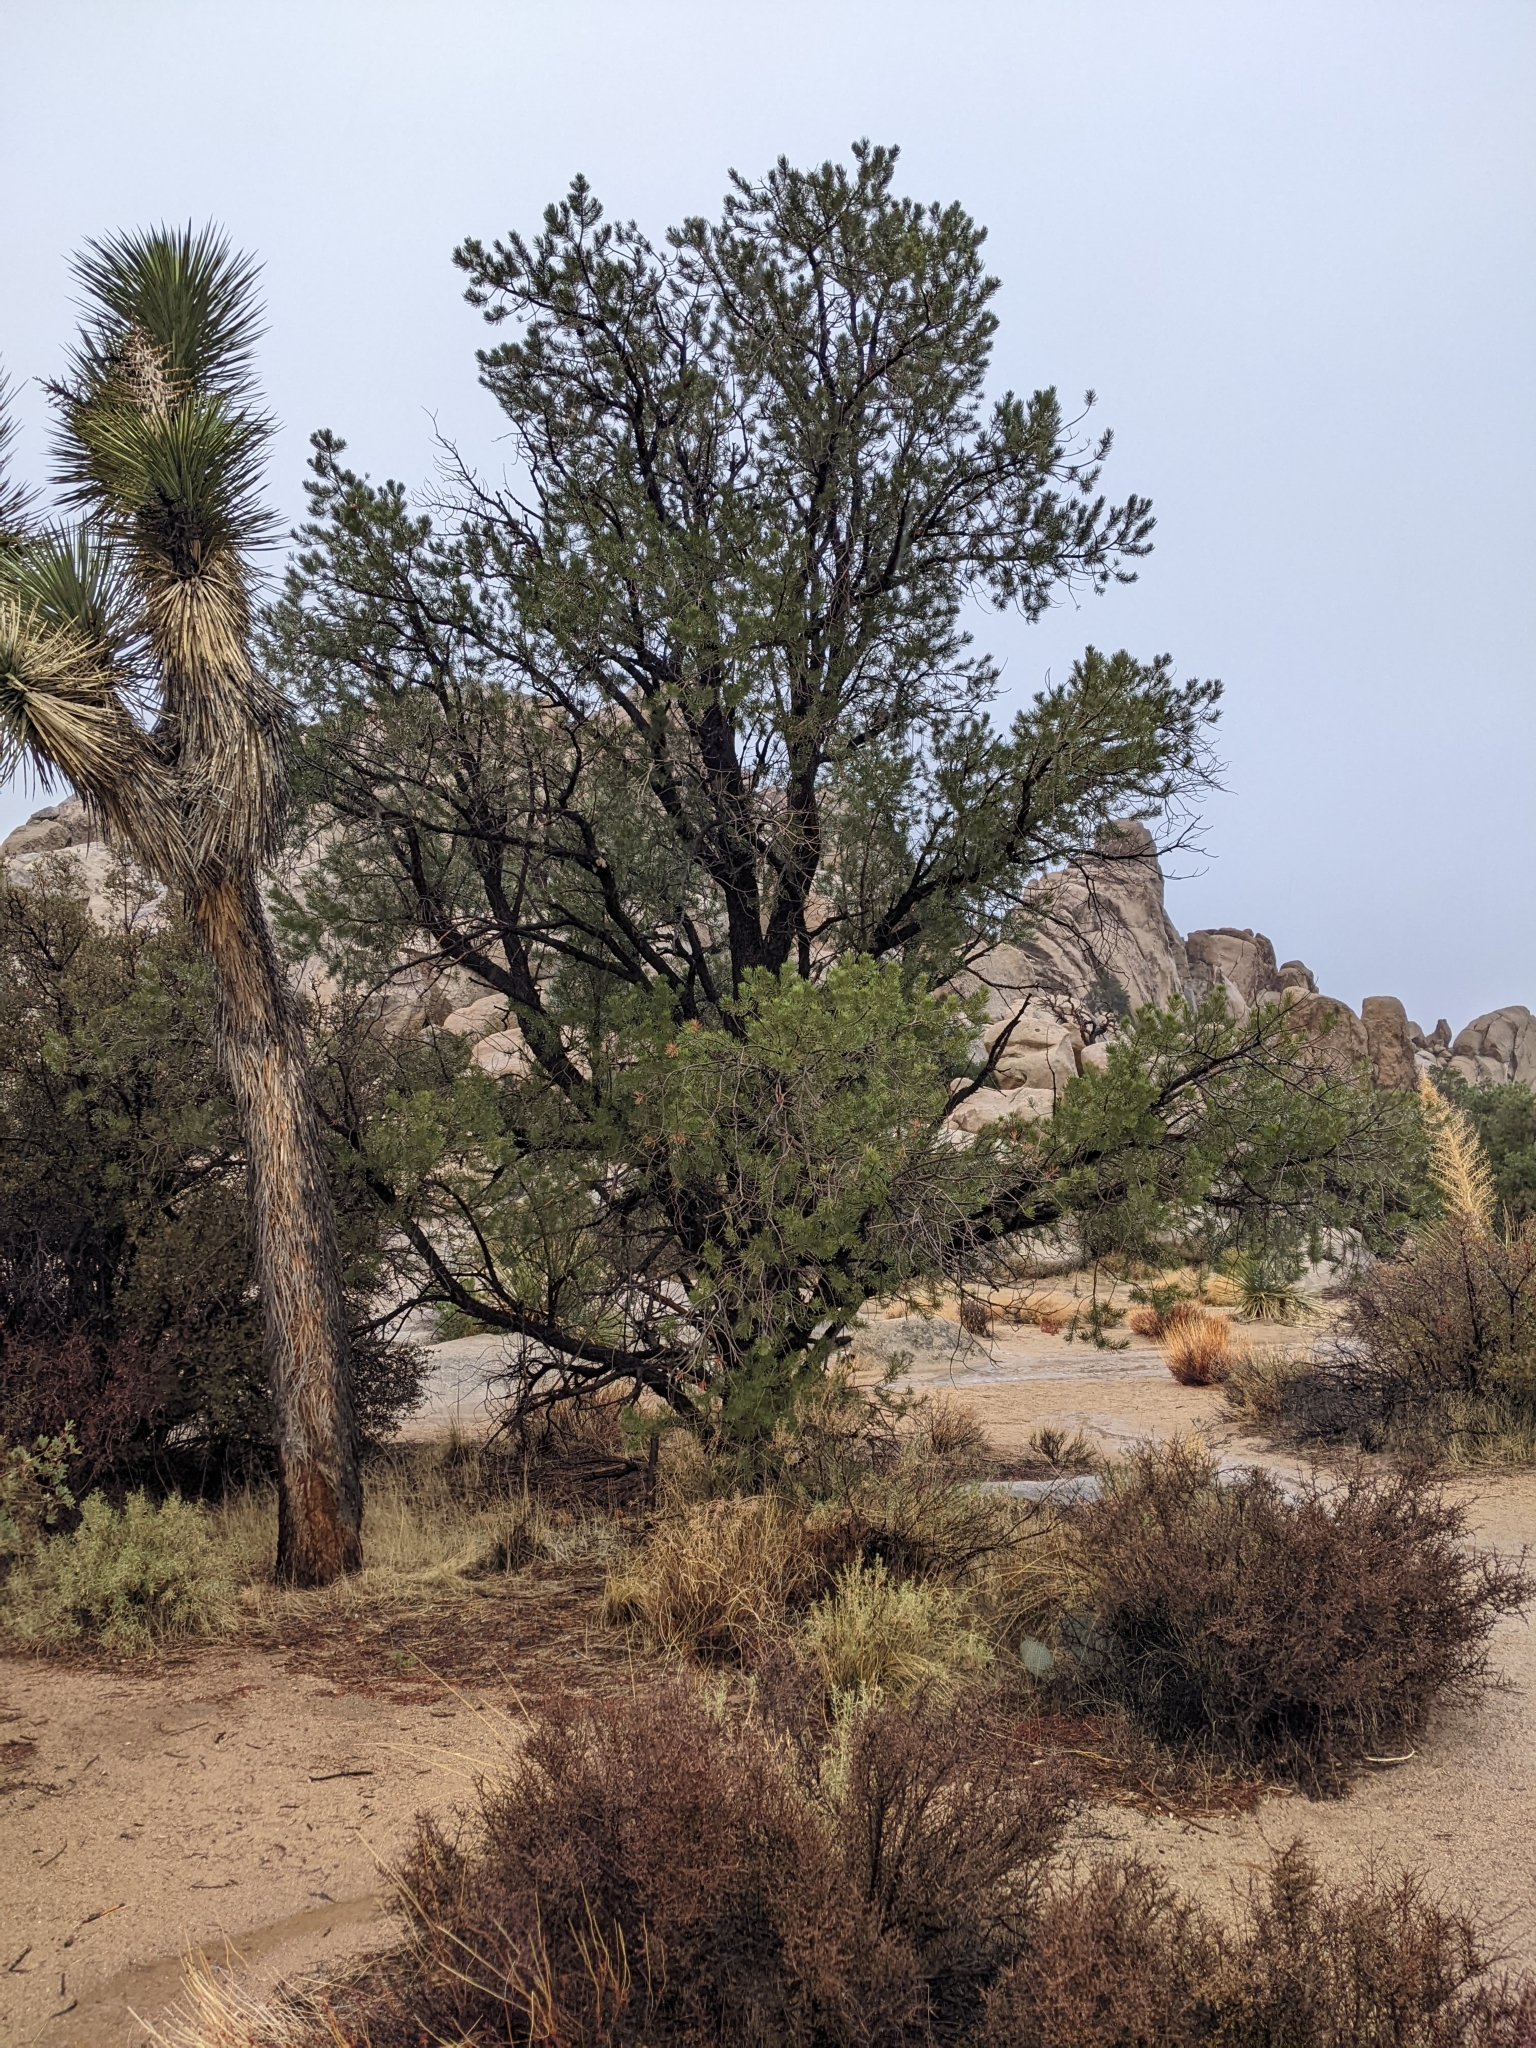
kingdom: Plantae
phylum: Tracheophyta
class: Pinopsida
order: Pinales
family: Pinaceae
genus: Pinus
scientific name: Pinus monophylla
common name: One-leaved nut pine
